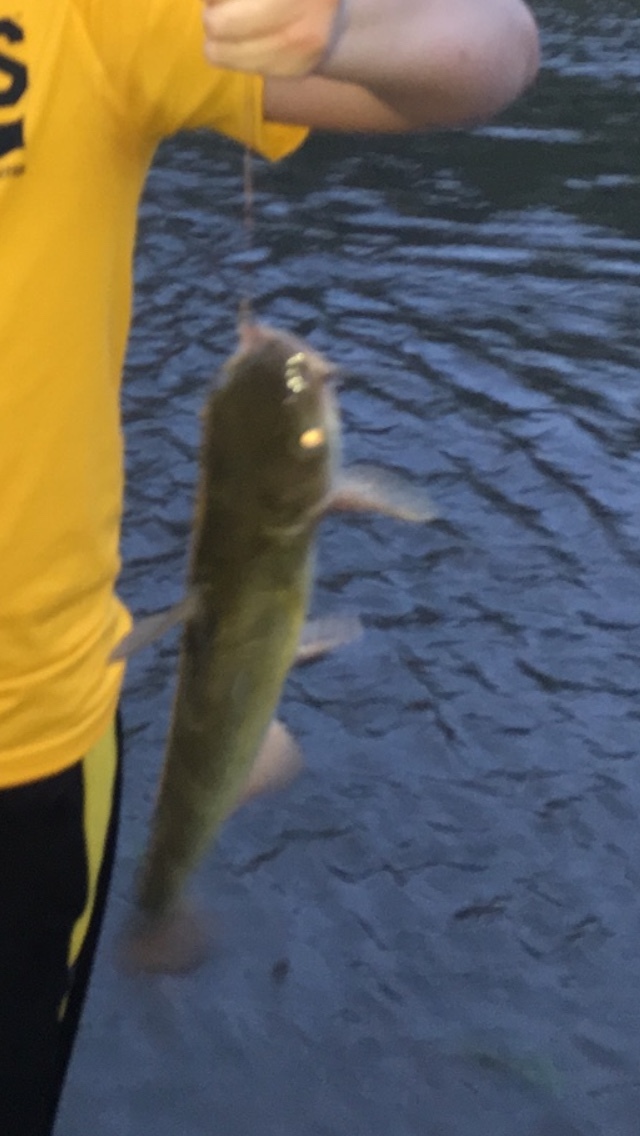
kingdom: Animalia
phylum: Chordata
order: Siluriformes
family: Ictaluridae
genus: Ictalurus
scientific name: Ictalurus punctatus
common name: Channel catfish
